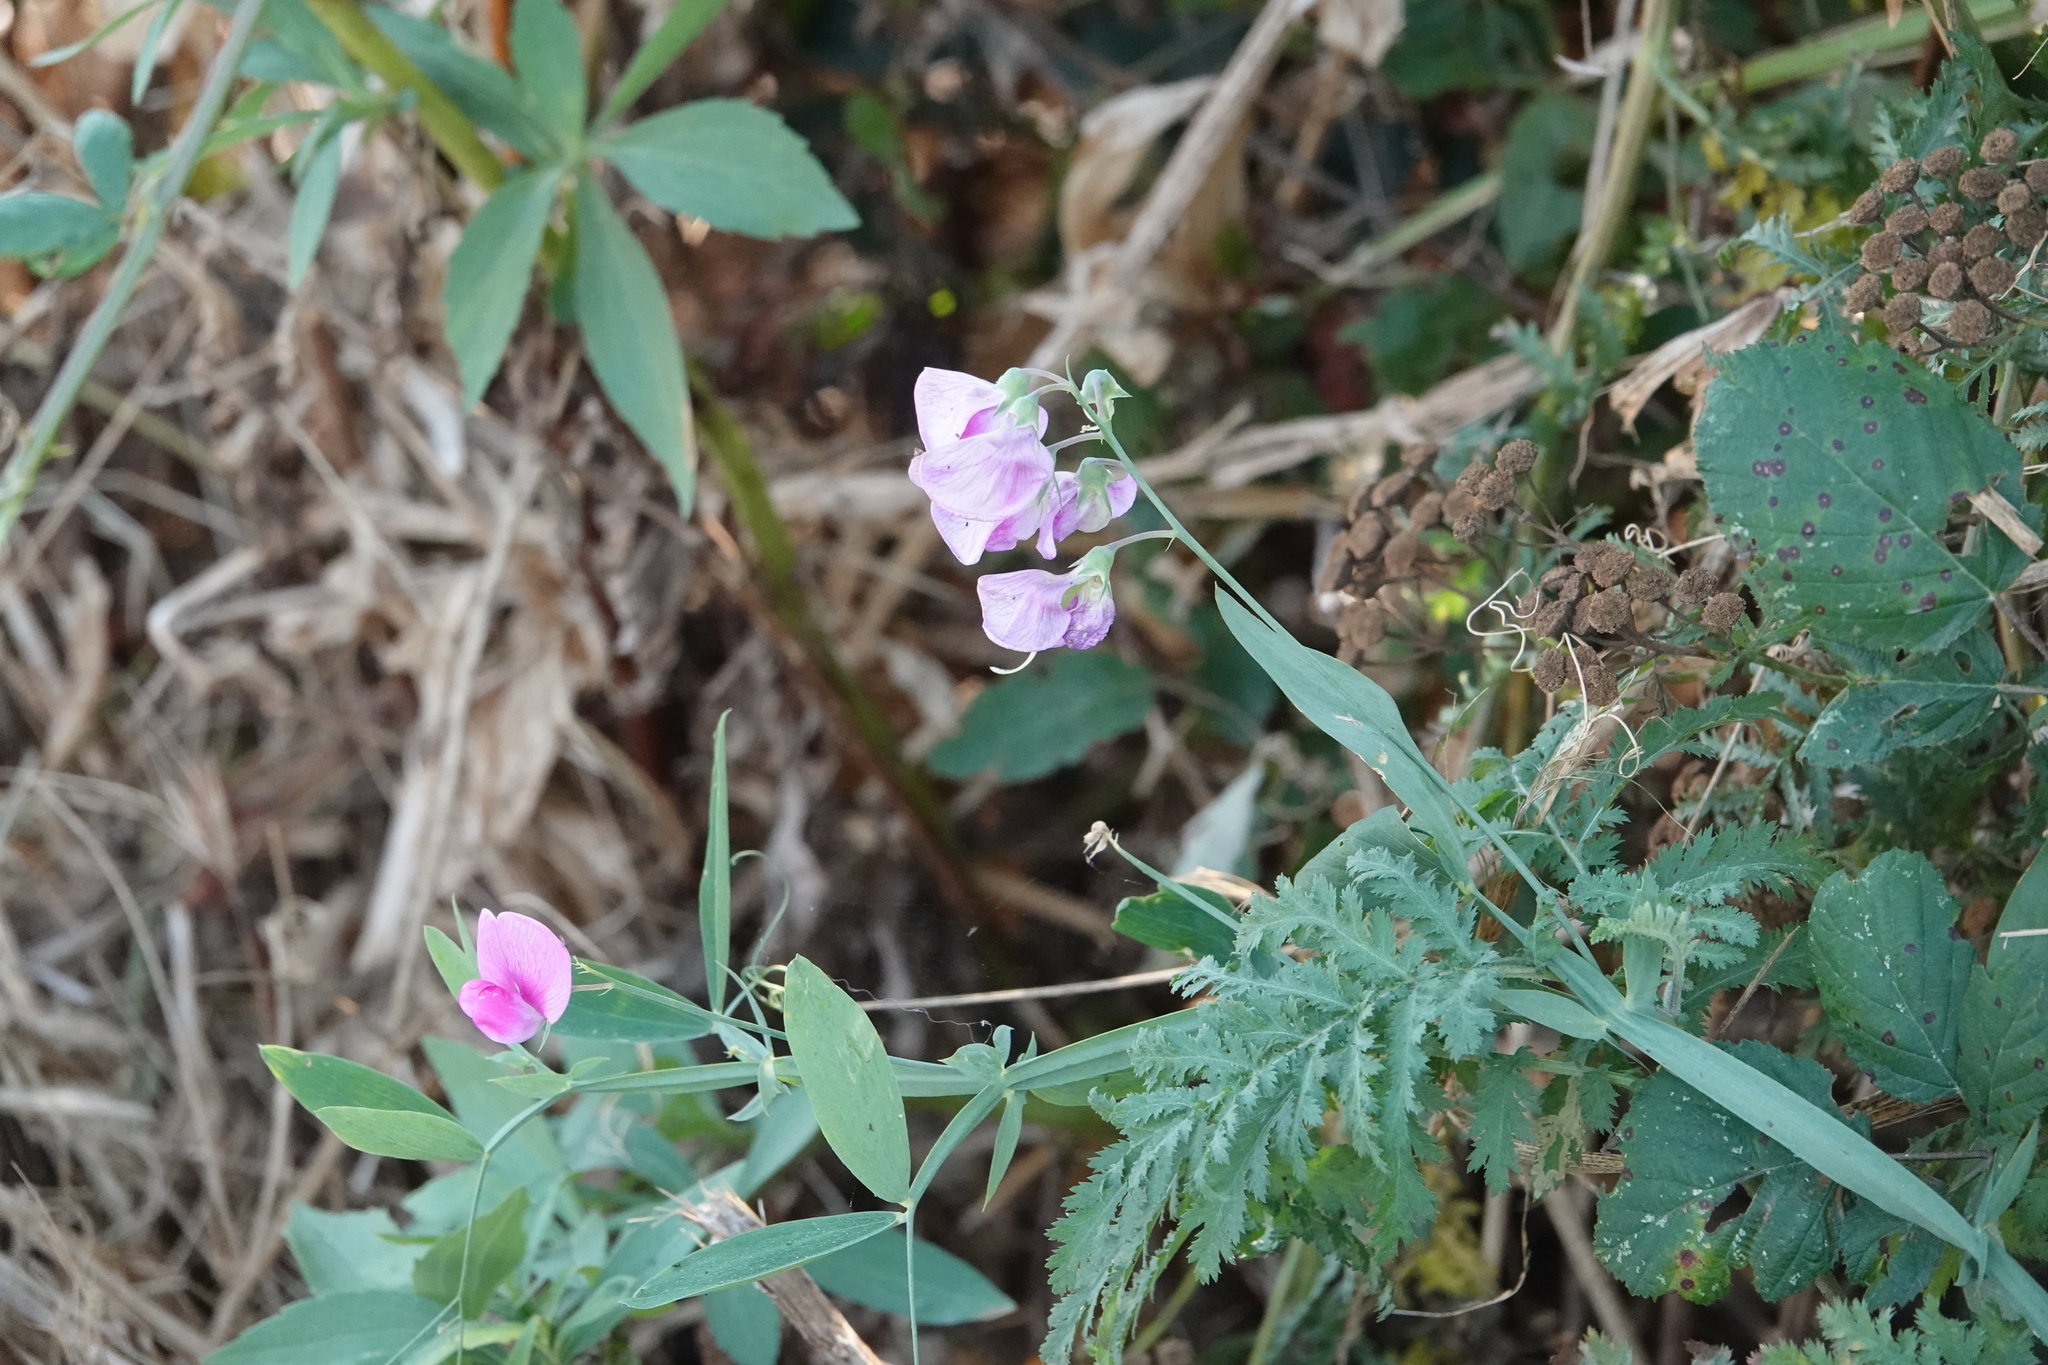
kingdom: Plantae
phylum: Tracheophyta
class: Magnoliopsida
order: Fabales
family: Fabaceae
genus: Lathyrus
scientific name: Lathyrus latifolius
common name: Perennial pea
